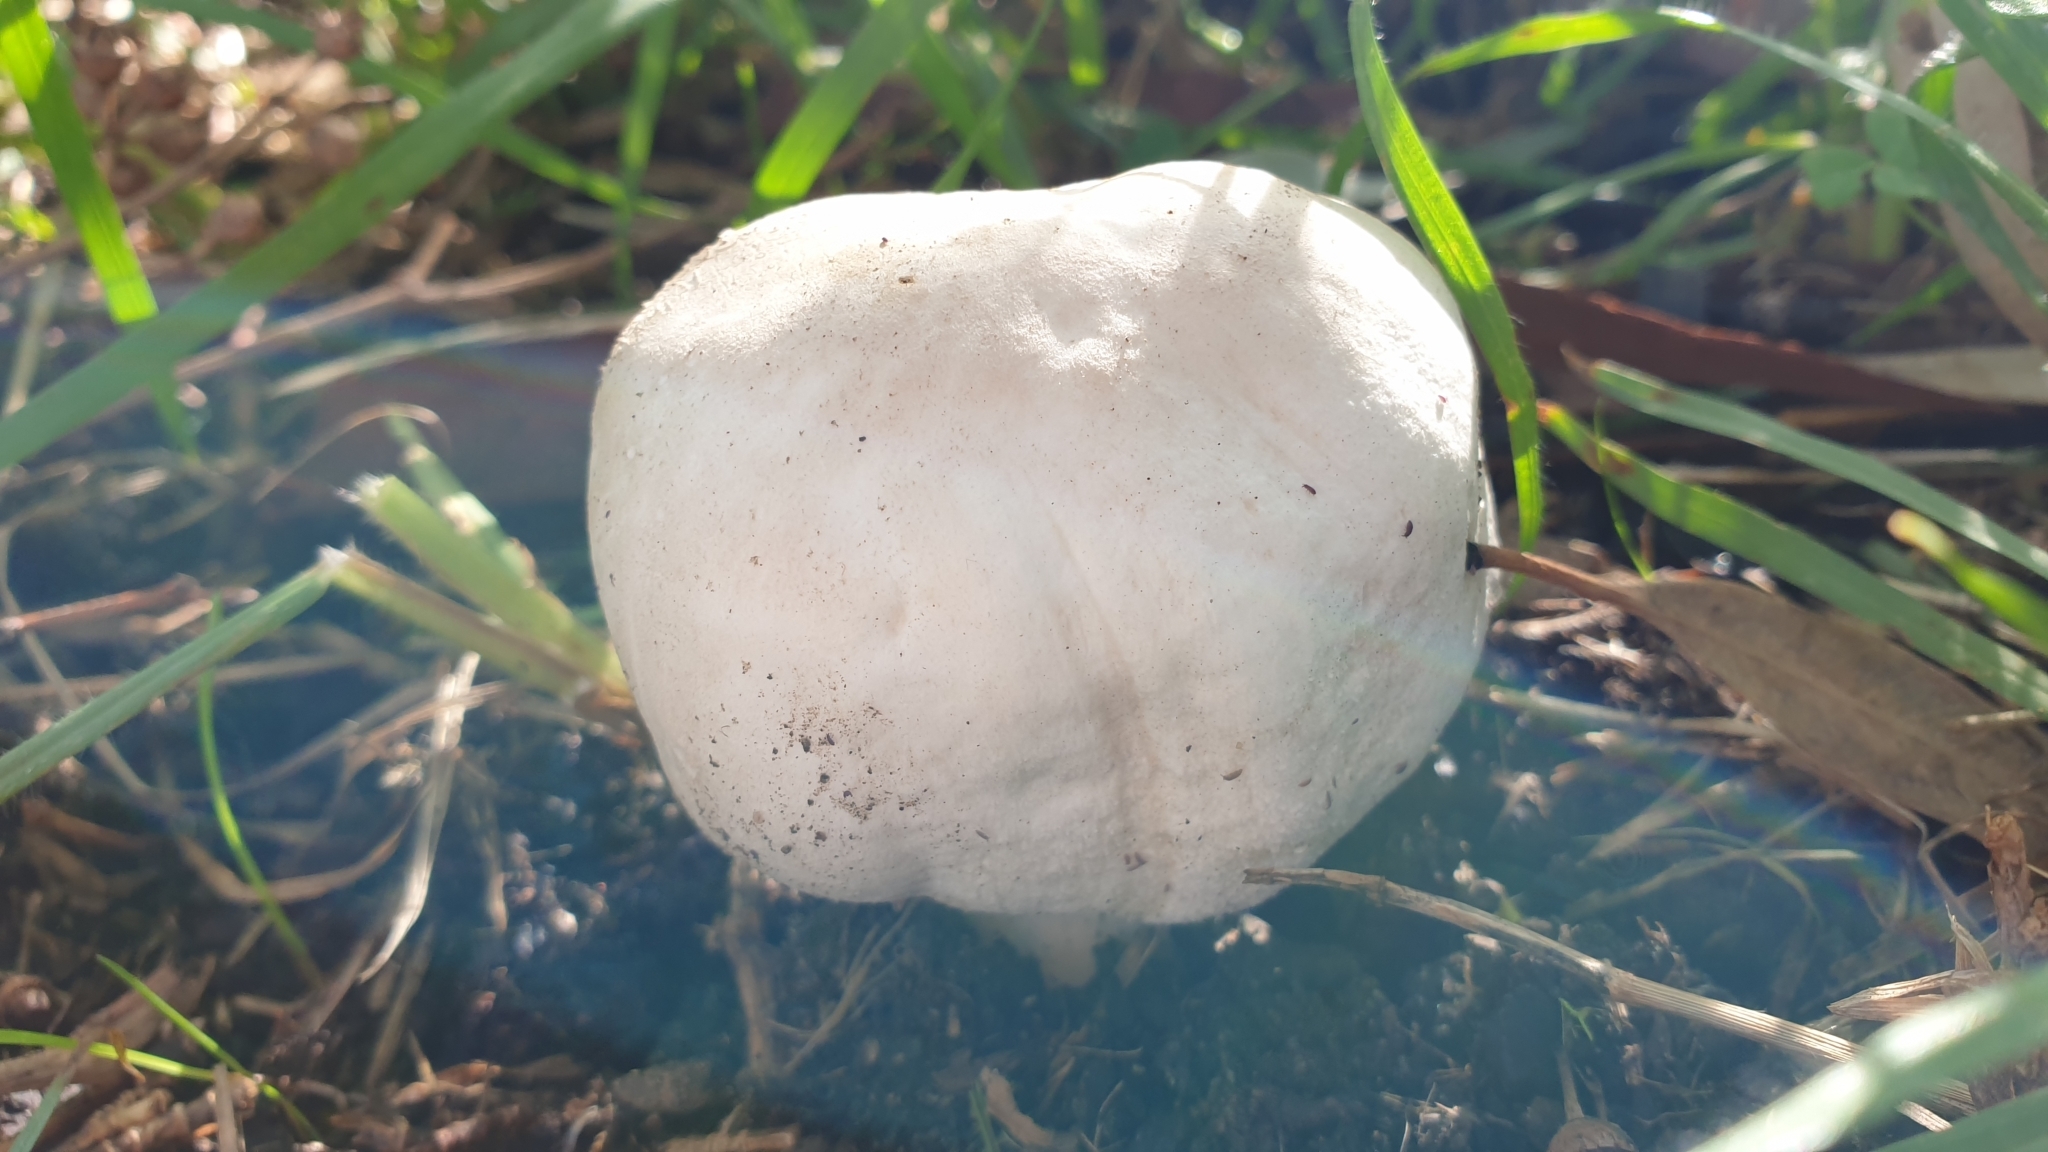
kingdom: Fungi
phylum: Basidiomycota
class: Agaricomycetes
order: Agaricales
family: Agaricaceae
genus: Agaricus
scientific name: Agaricus xanthodermus
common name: Yellow stainer
